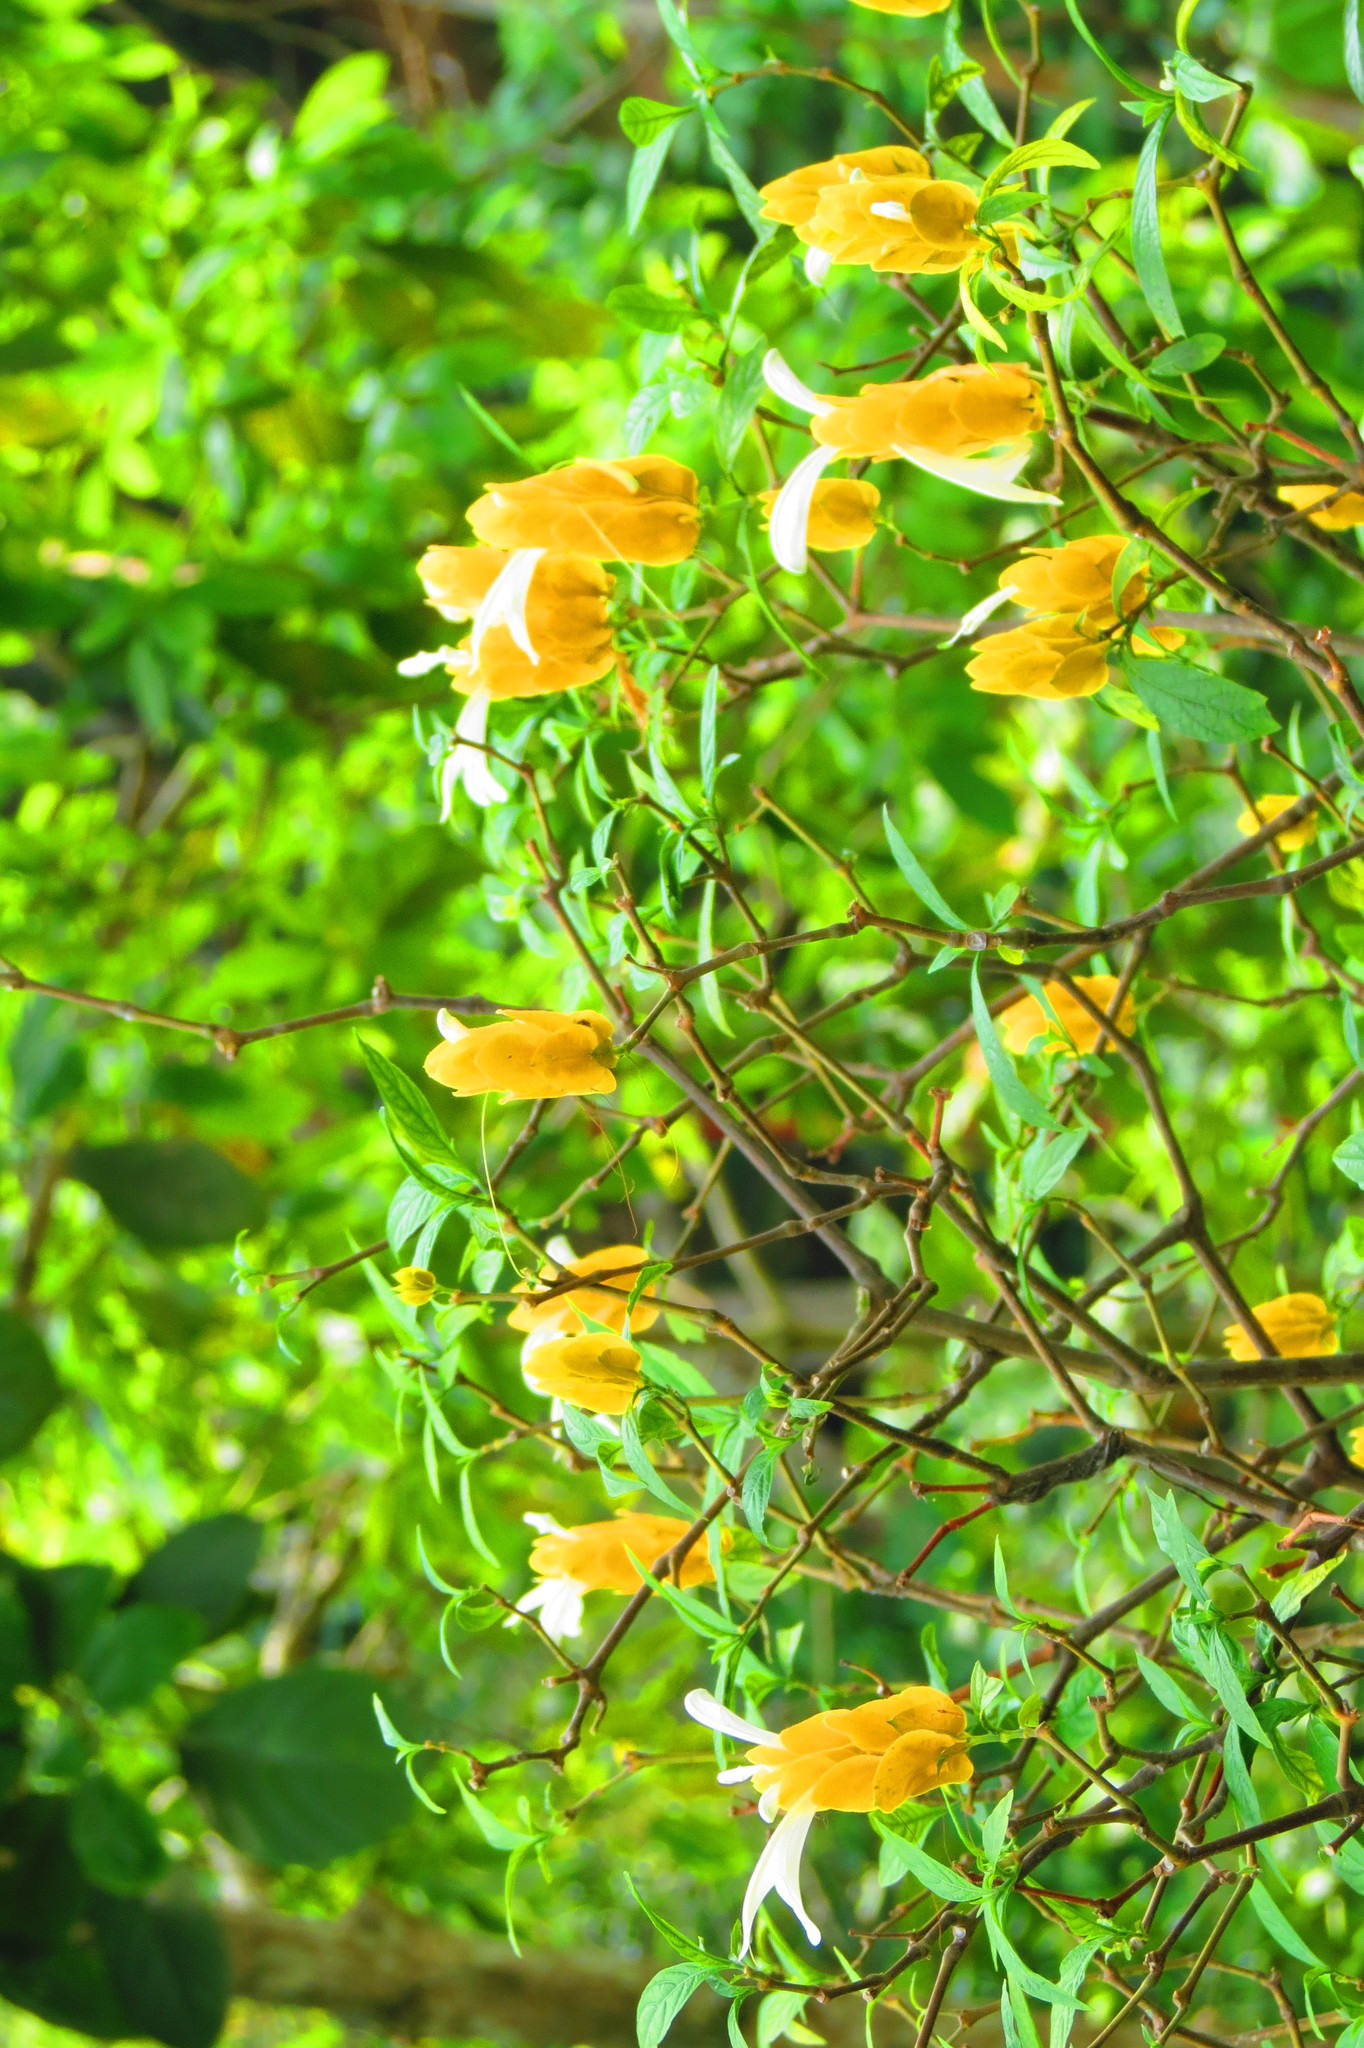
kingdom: Plantae
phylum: Tracheophyta
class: Magnoliopsida
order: Lamiales
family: Acanthaceae
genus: Pachystachys
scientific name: Pachystachys lutea
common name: Golden shrimp-plant
